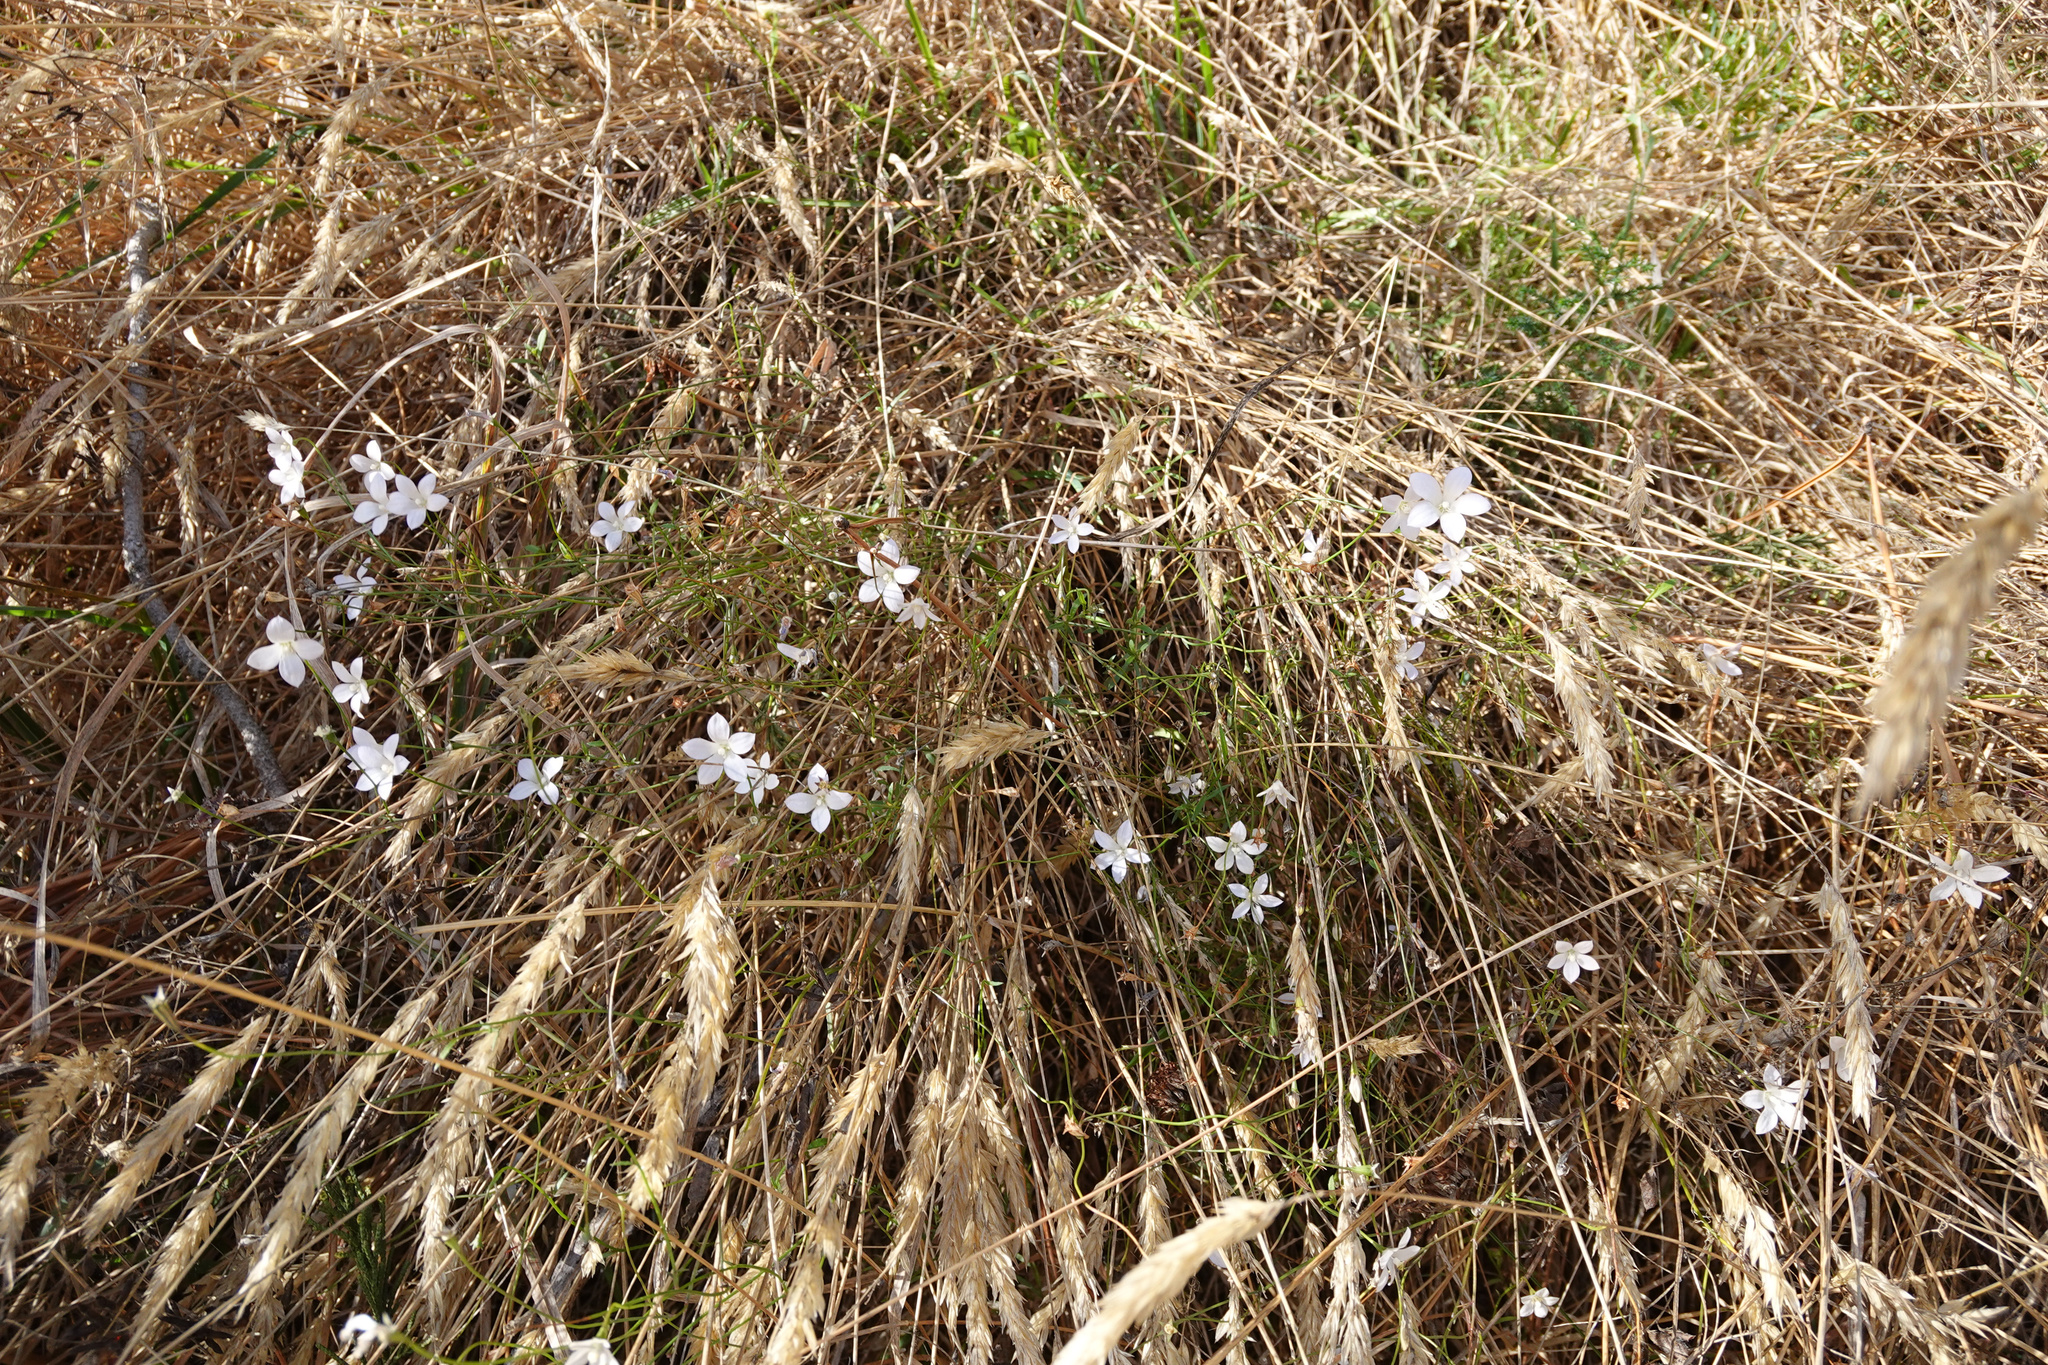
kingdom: Plantae
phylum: Tracheophyta
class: Magnoliopsida
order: Asterales
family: Campanulaceae
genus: Wahlenbergia
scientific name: Wahlenbergia albomarginata
